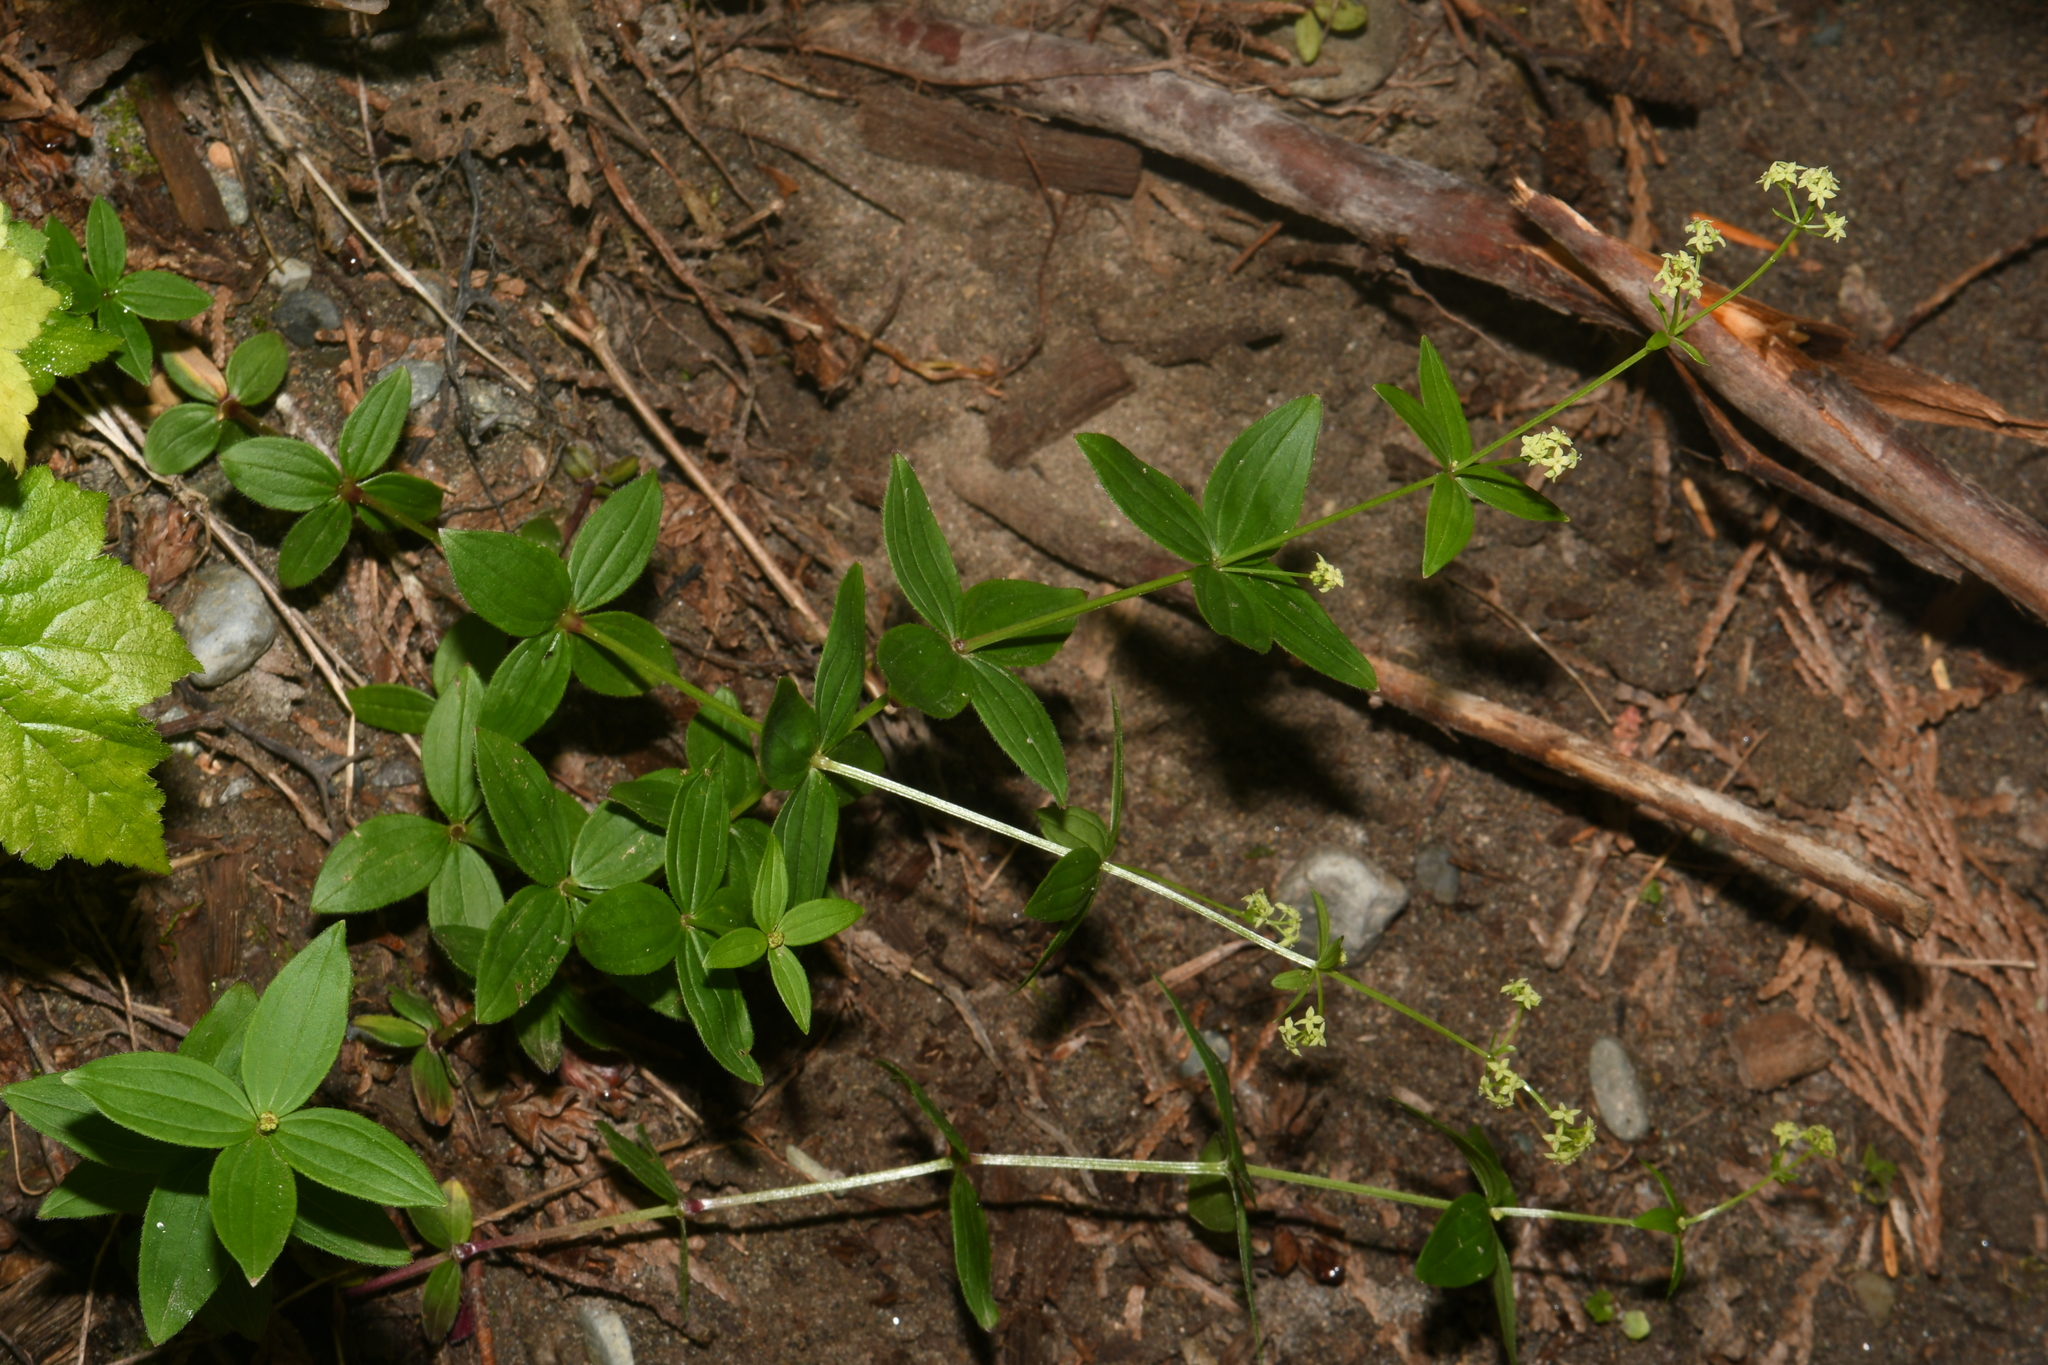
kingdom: Plantae
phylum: Tracheophyta
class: Magnoliopsida
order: Gentianales
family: Rubiaceae
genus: Galium
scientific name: Galium oreganum
